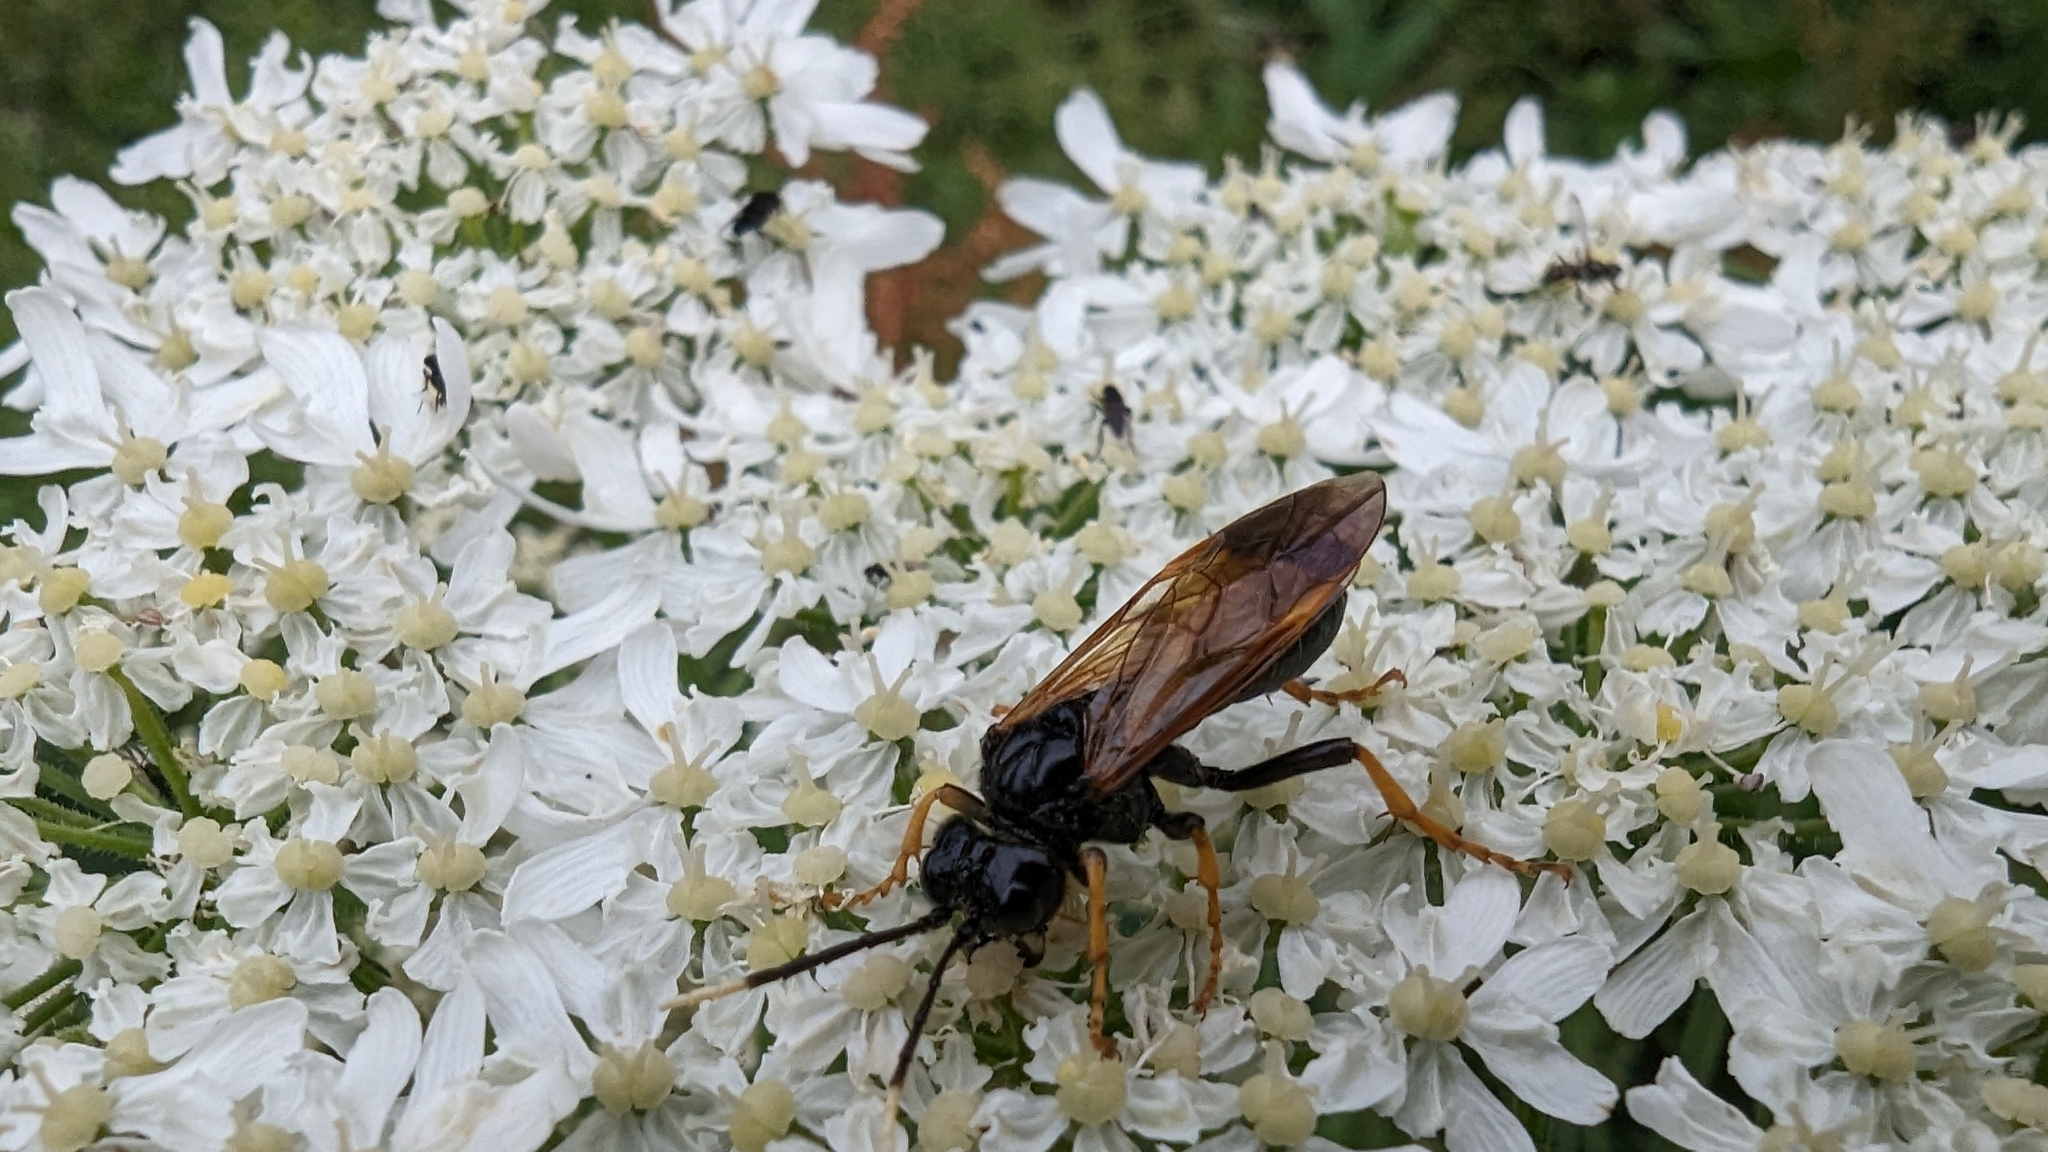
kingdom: Animalia
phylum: Arthropoda
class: Insecta
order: Hymenoptera
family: Tenthredinidae
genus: Tenthredo
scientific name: Tenthredo crassa
